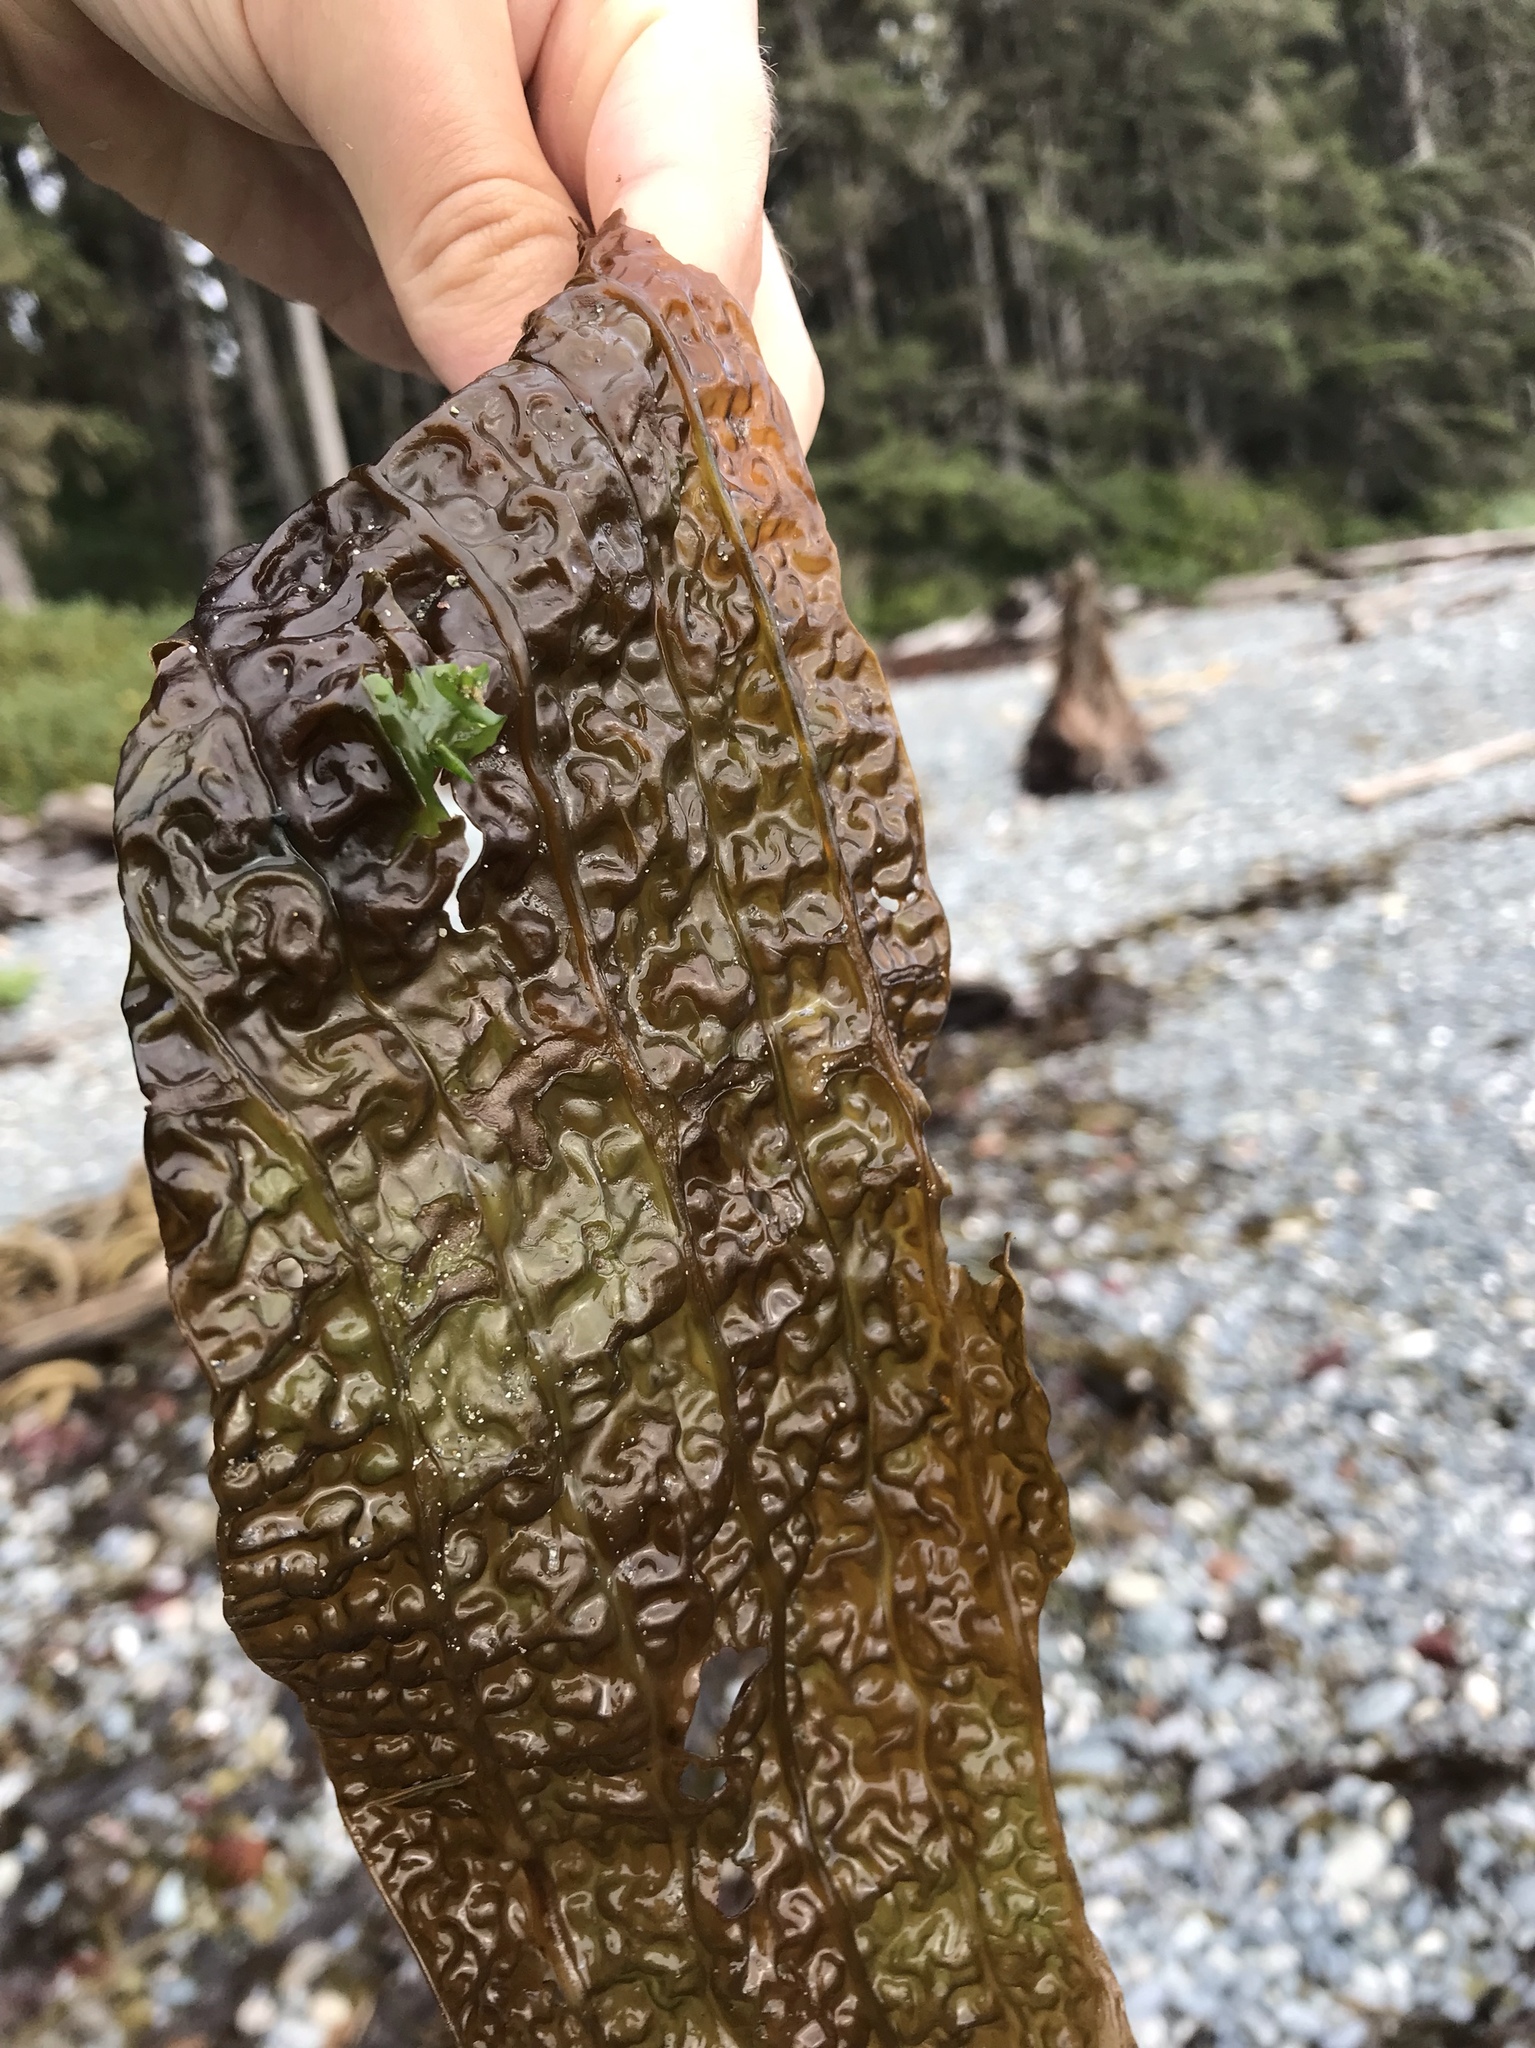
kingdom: Chromista
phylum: Ochrophyta
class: Phaeophyceae
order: Laminariales
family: Costariaceae
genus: Costaria
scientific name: Costaria costata
